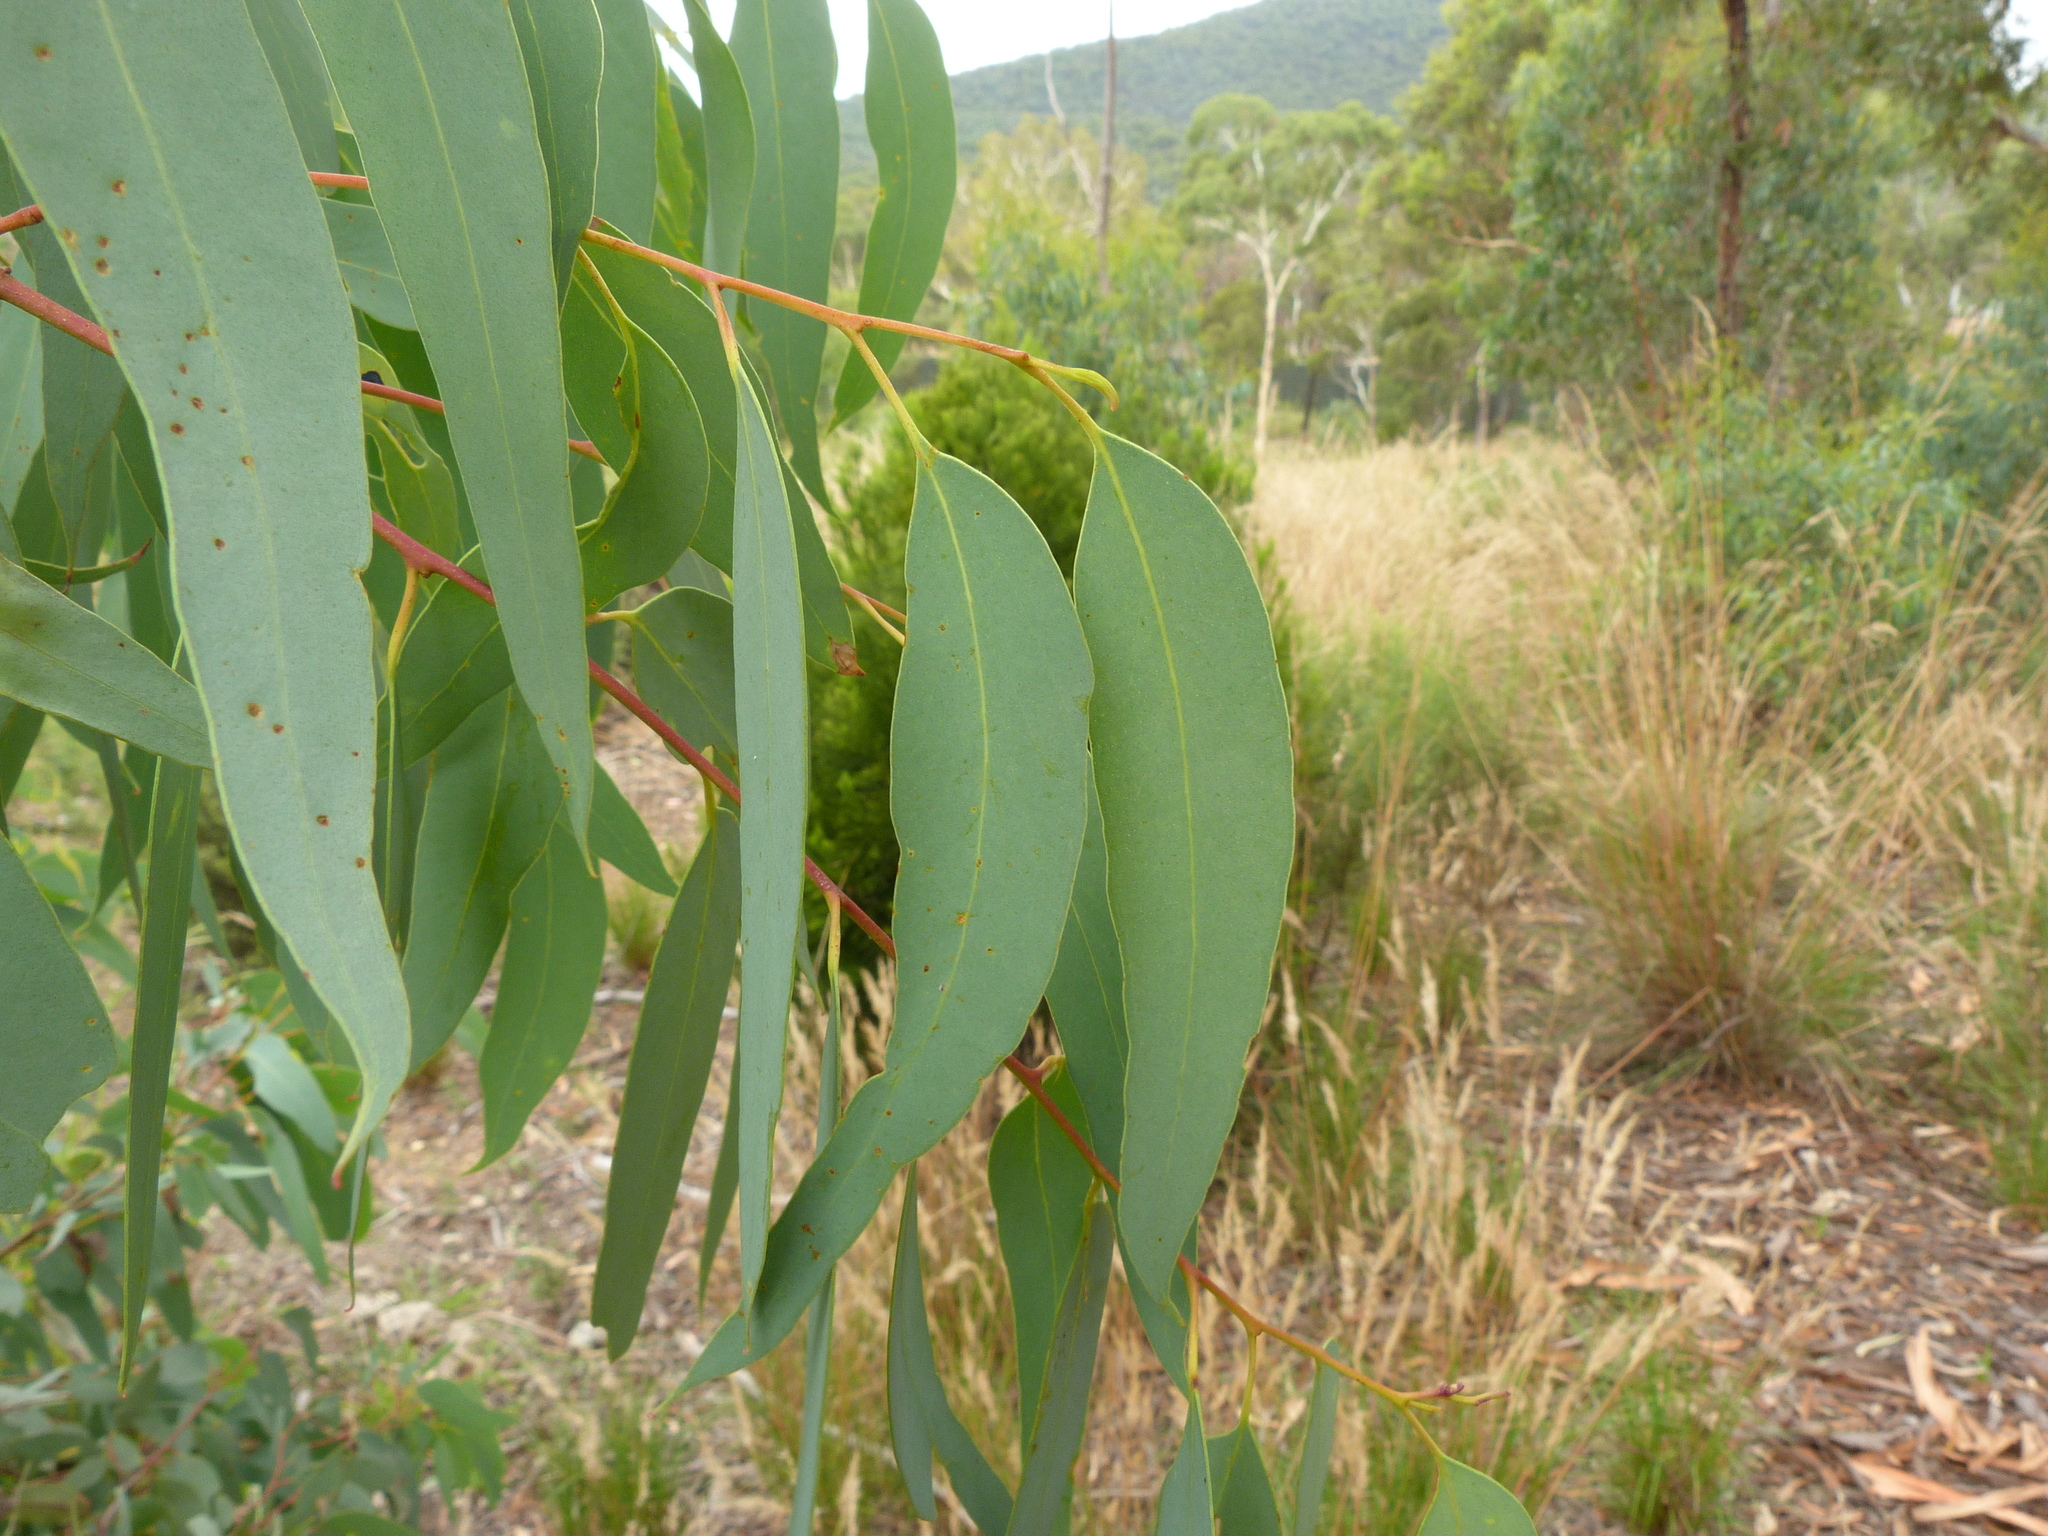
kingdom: Plantae
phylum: Tracheophyta
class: Magnoliopsida
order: Myrtales
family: Myrtaceae
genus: Eucalyptus
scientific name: Eucalyptus racemosa
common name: Scribbly gum
